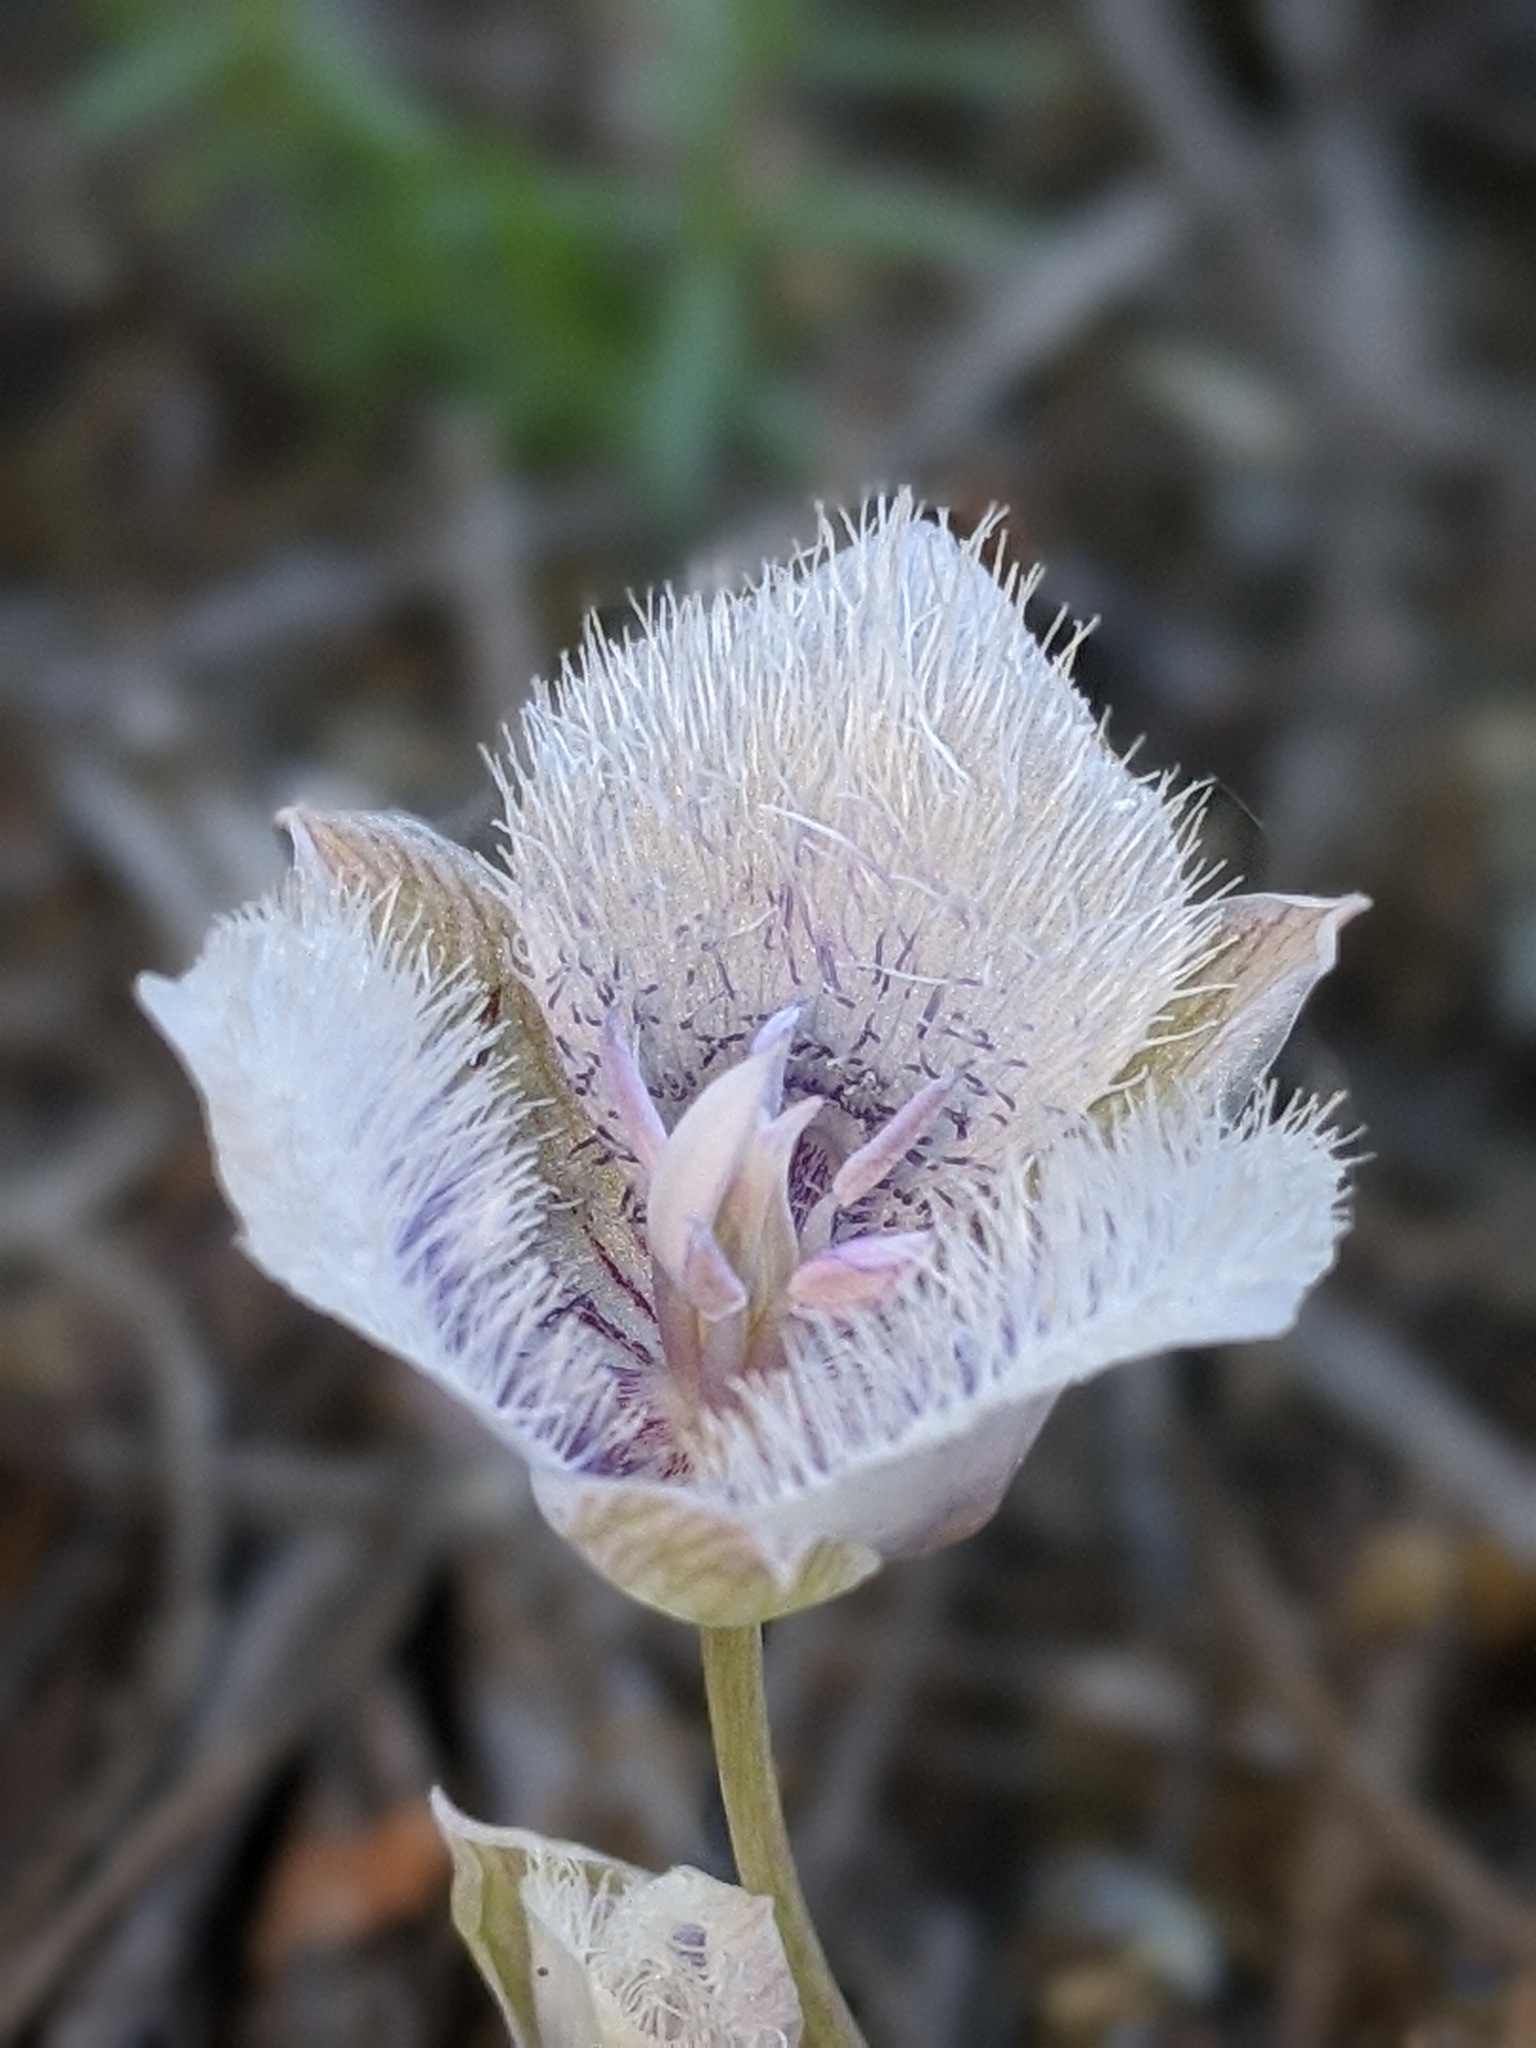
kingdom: Plantae
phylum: Tracheophyta
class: Liliopsida
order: Liliales
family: Liliaceae
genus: Calochortus
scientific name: Calochortus tolmiei
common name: Pussy-ears
